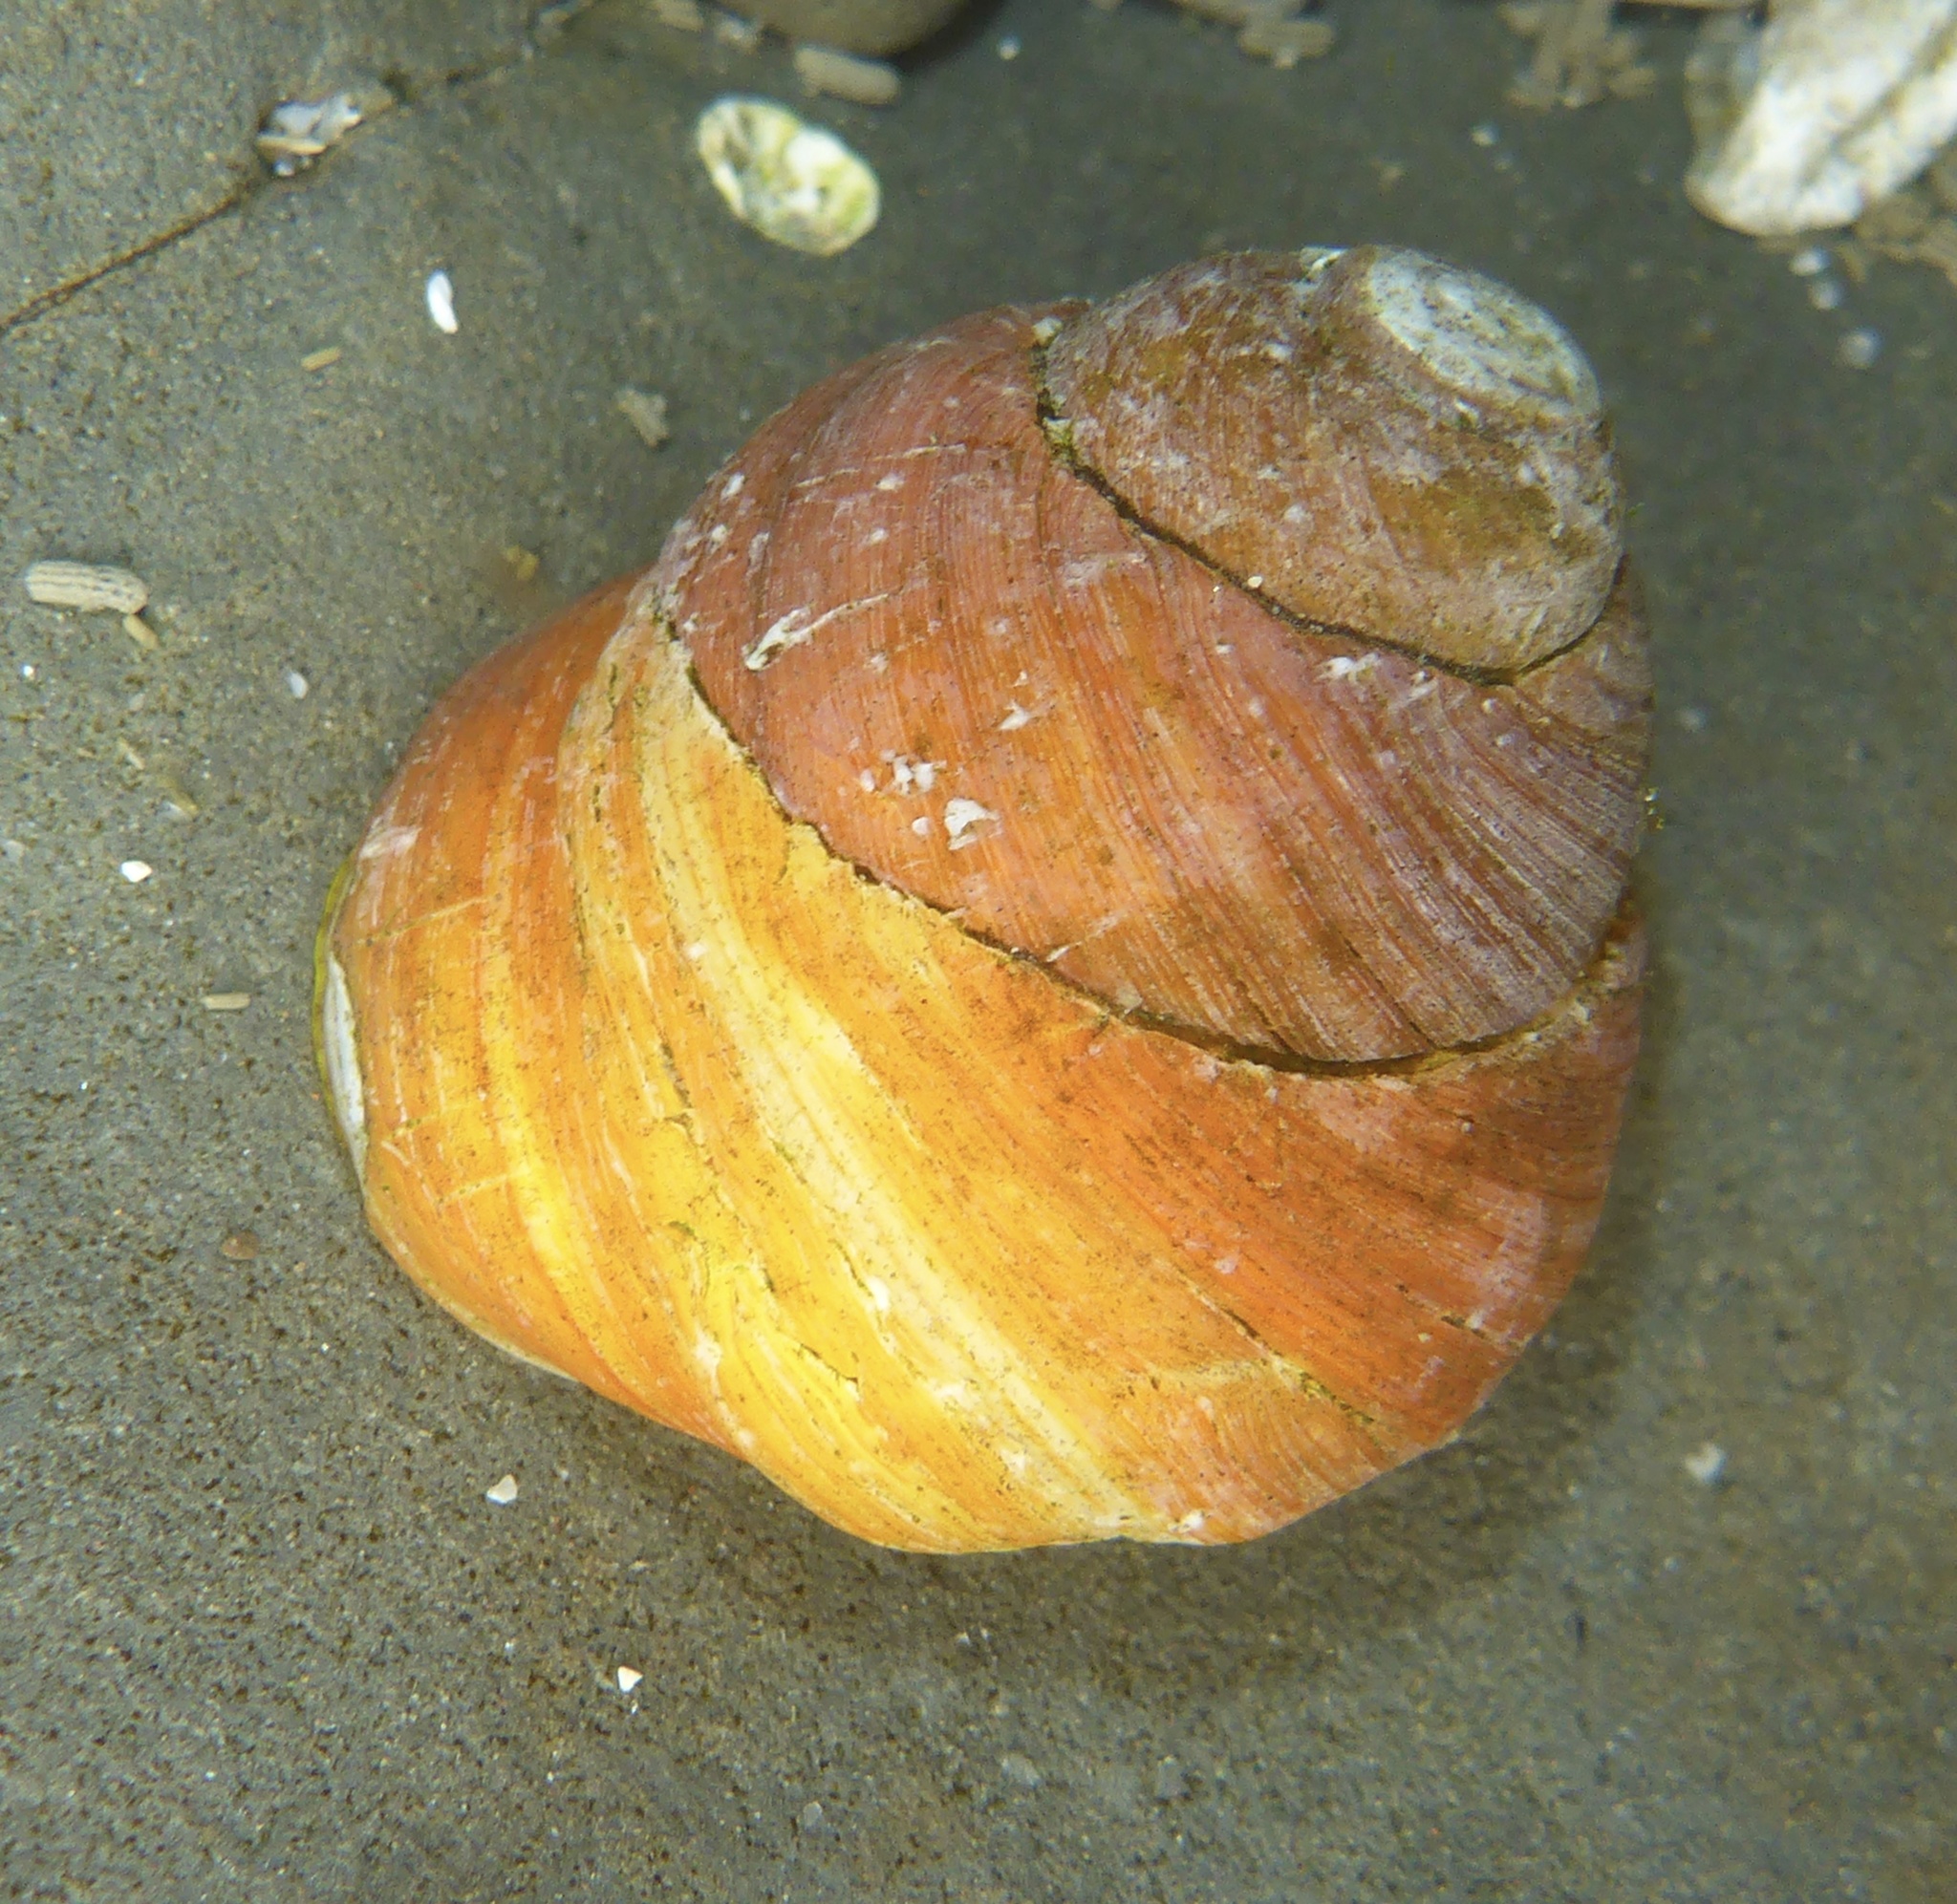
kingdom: Animalia
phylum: Mollusca
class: Gastropoda
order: Trochida
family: Tegulidae
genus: Tegula
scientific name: Tegula brunnea
